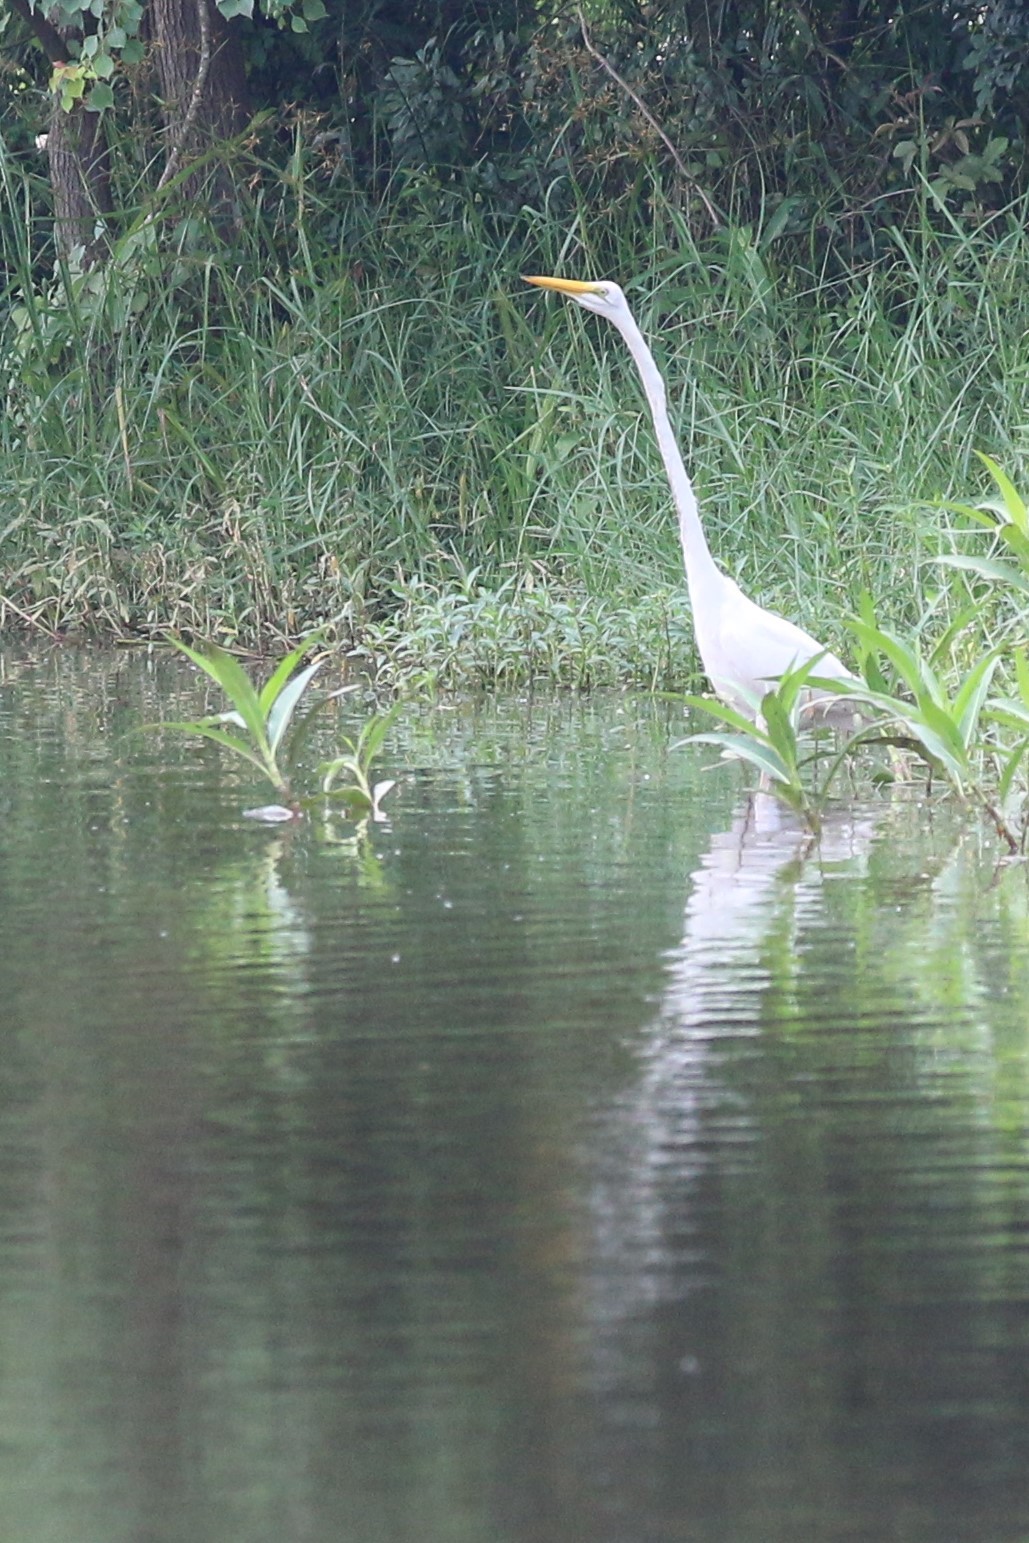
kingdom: Animalia
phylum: Chordata
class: Aves
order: Pelecaniformes
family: Ardeidae
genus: Ardea
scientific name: Ardea alba
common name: Great egret
